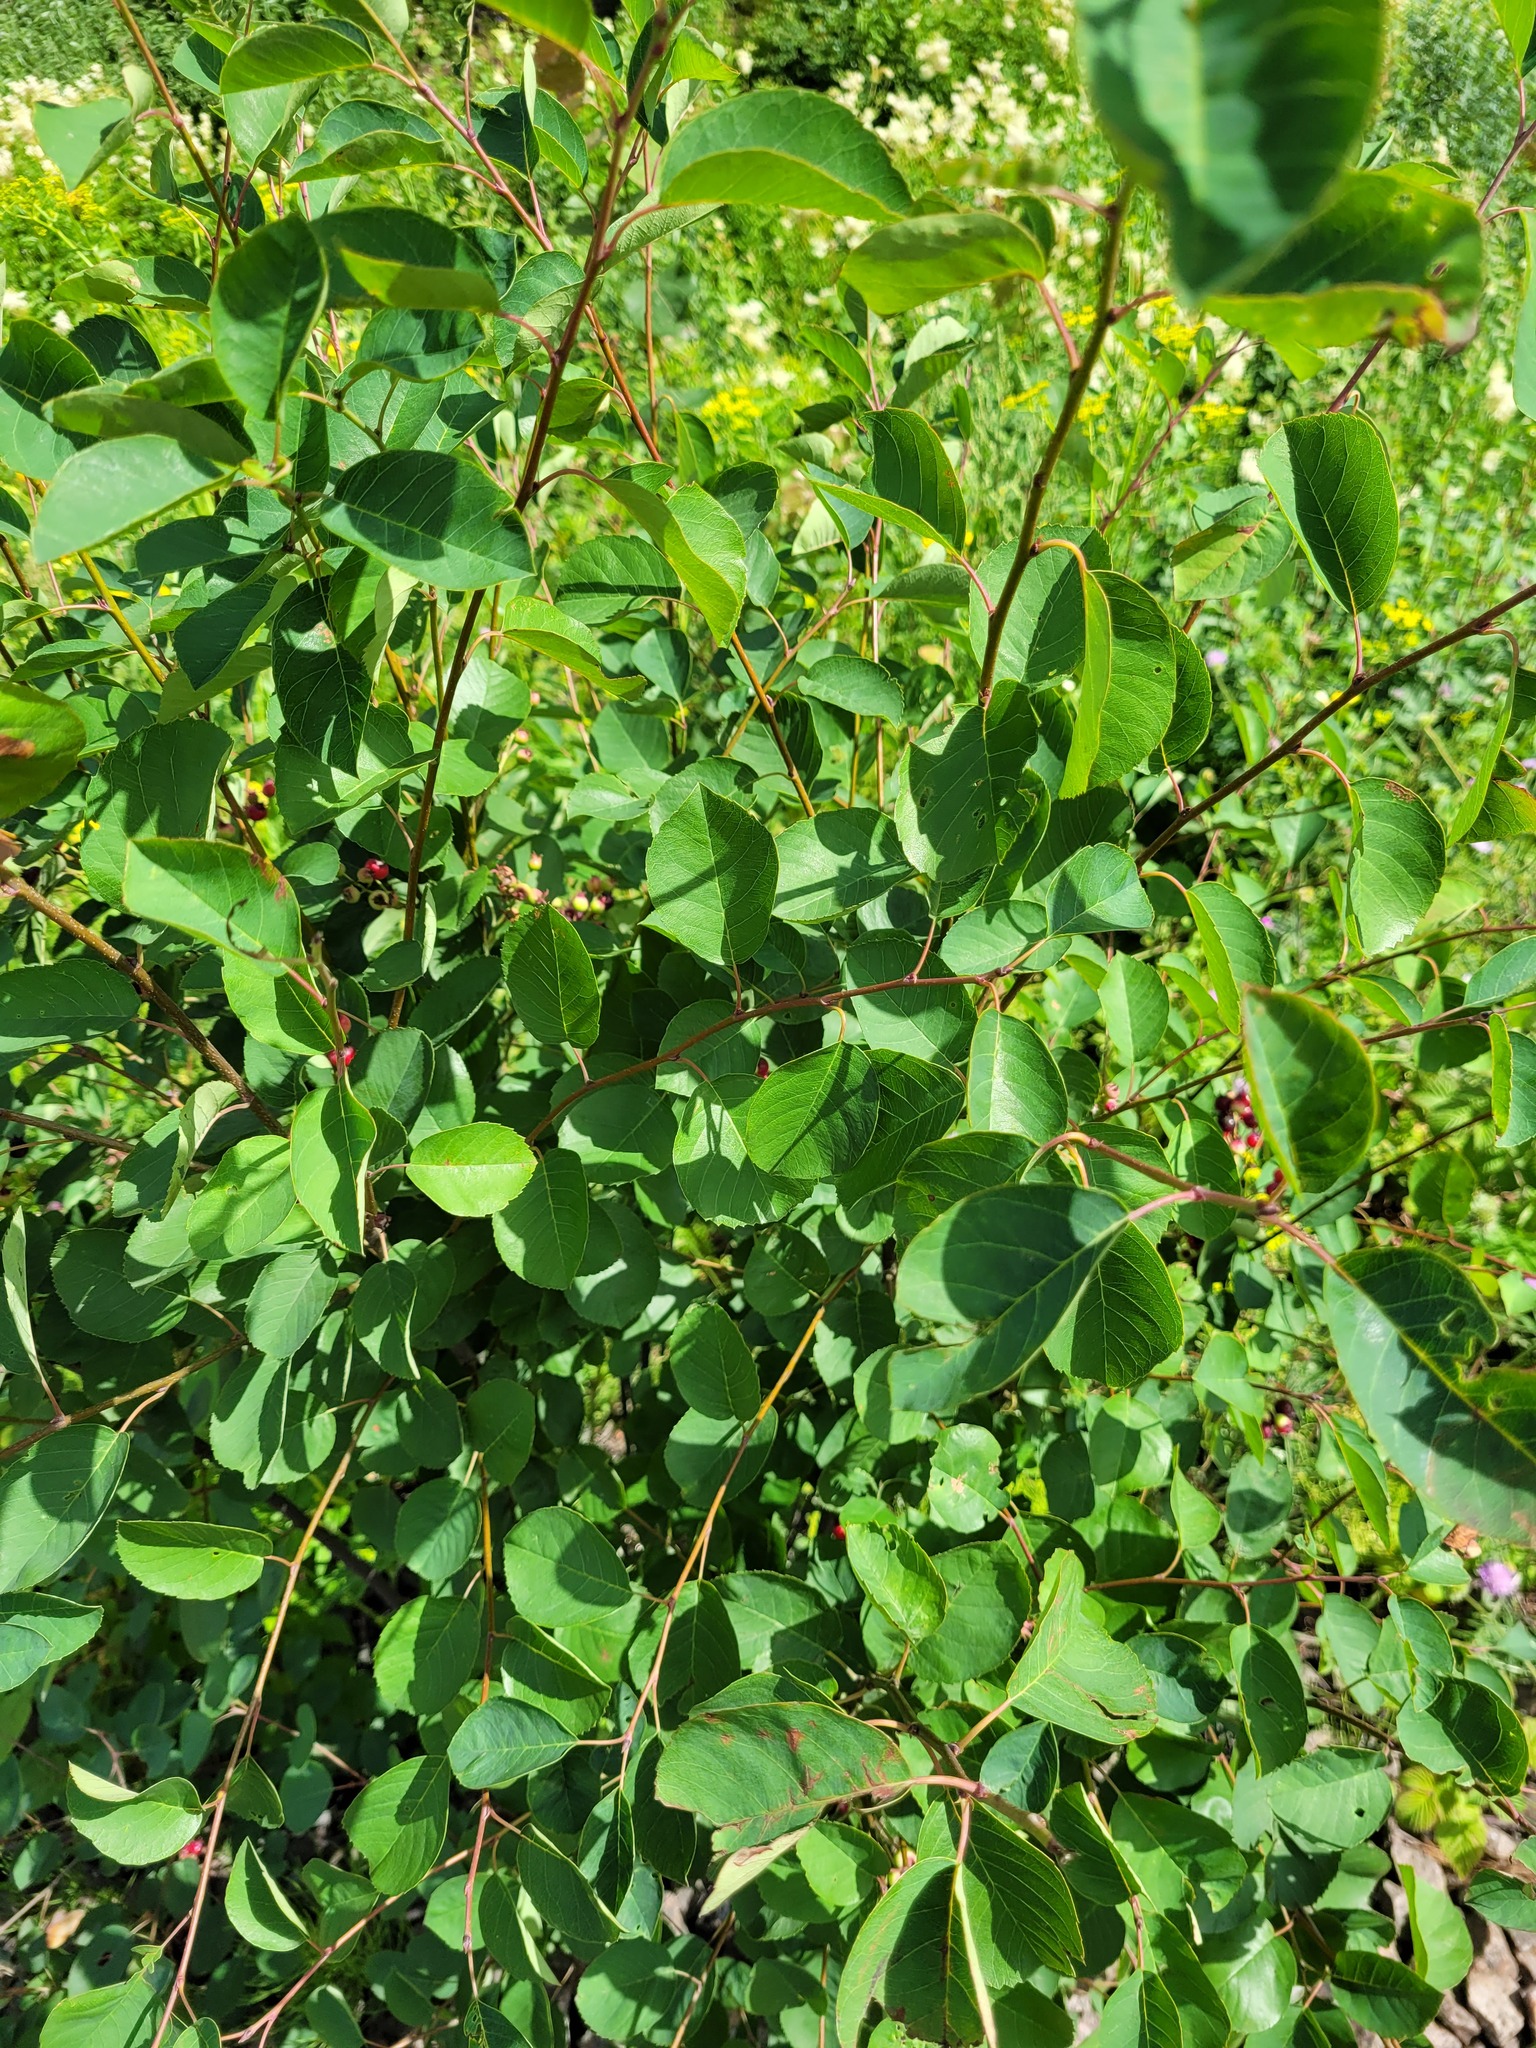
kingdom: Plantae
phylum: Tracheophyta
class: Magnoliopsida
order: Rosales
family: Rosaceae
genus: Amelanchier
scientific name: Amelanchier
